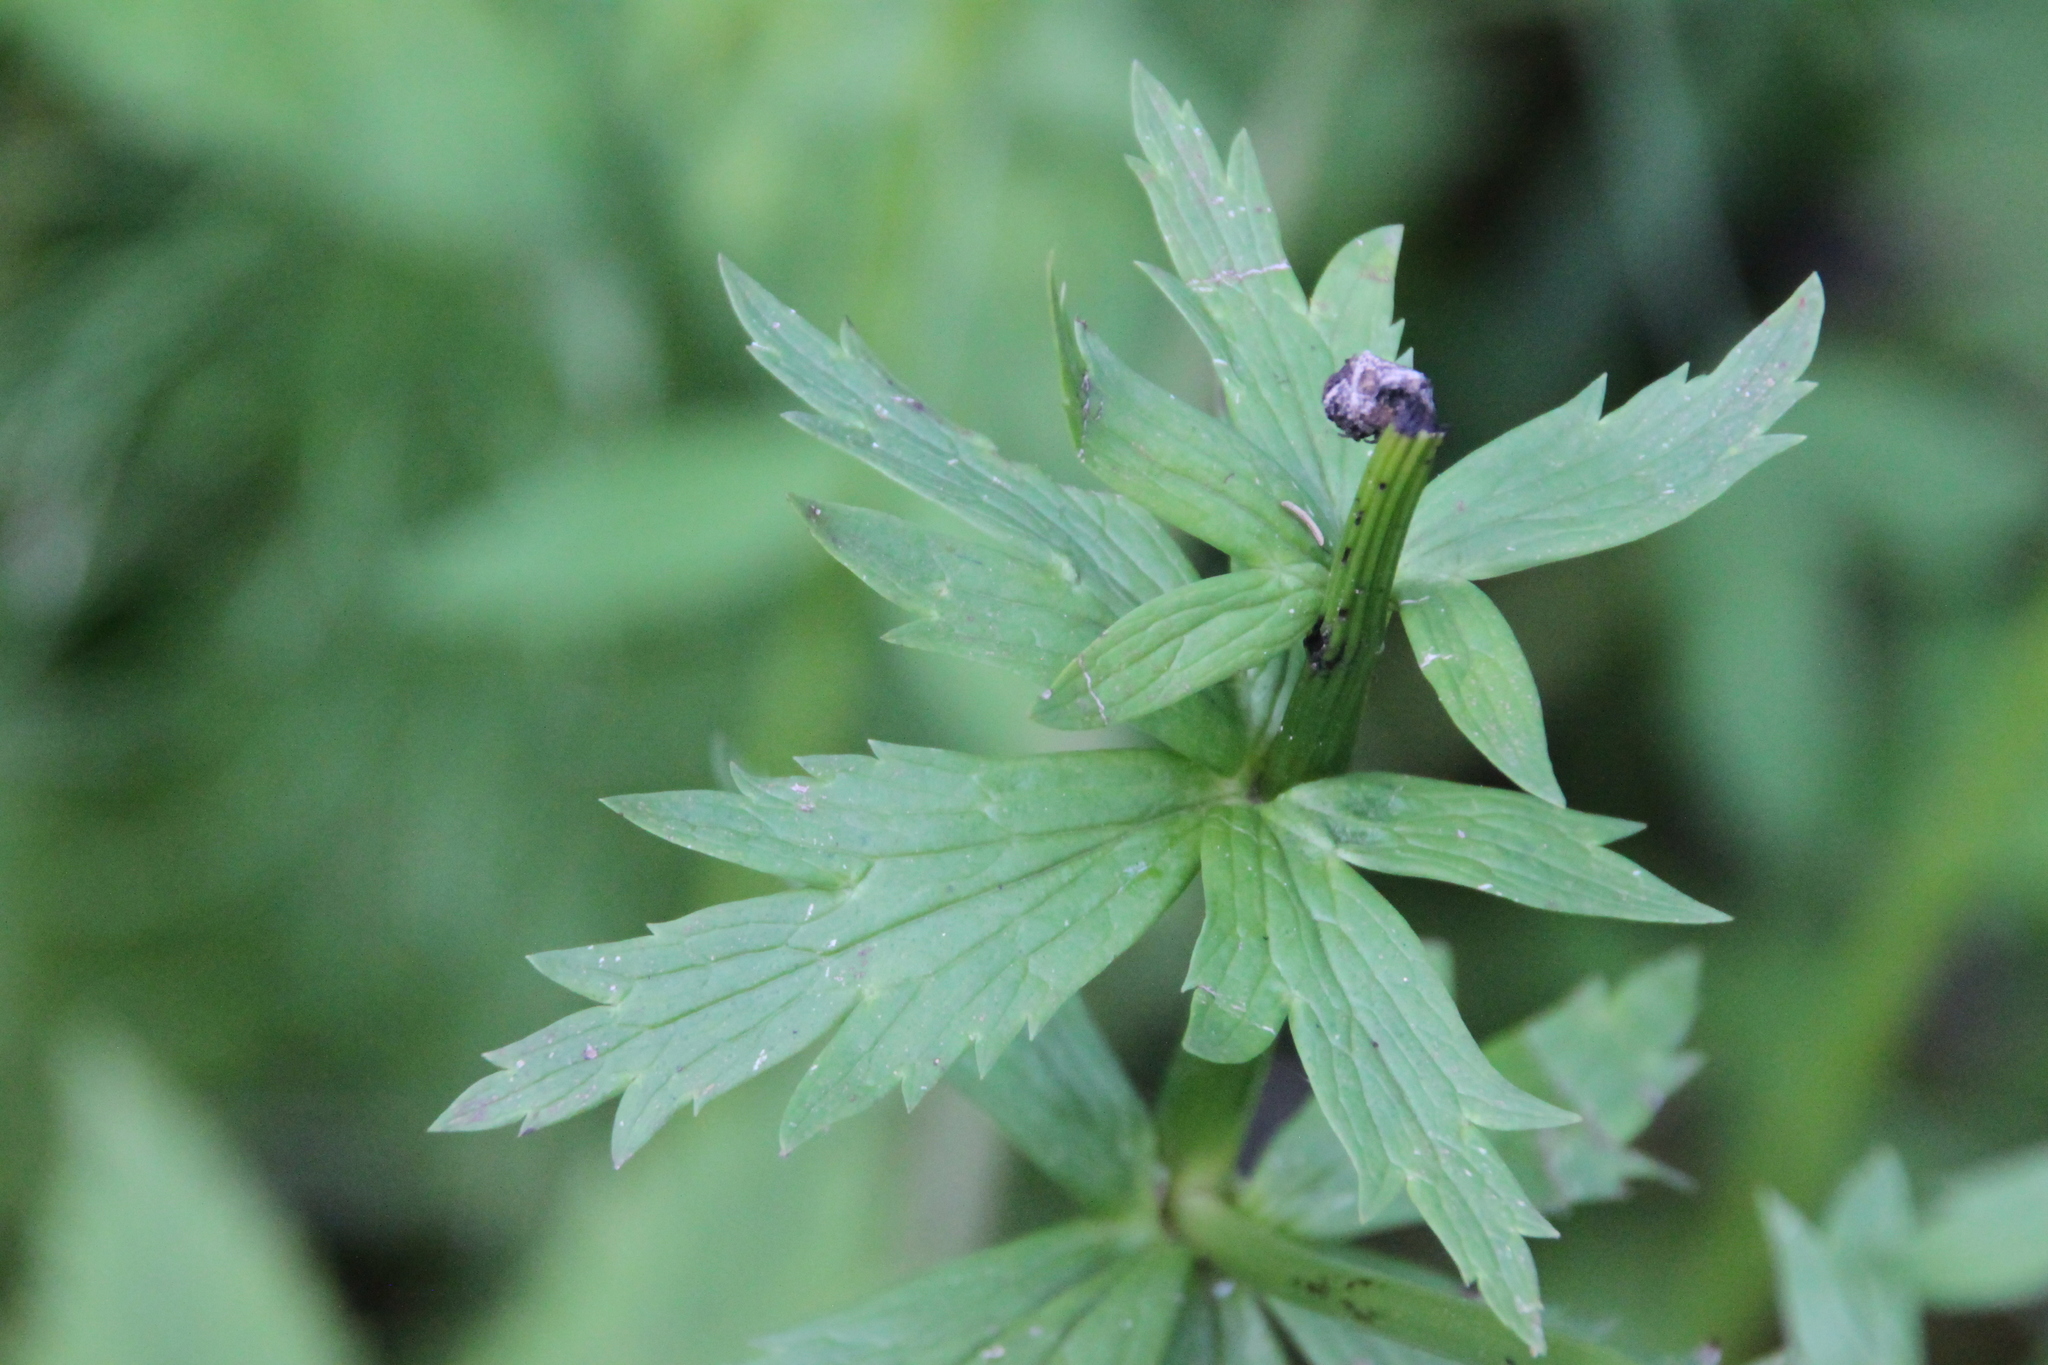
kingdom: Plantae
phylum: Tracheophyta
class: Magnoliopsida
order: Ranunculales
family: Ranunculaceae
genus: Trollius
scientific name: Trollius europaeus
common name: European globeflower
